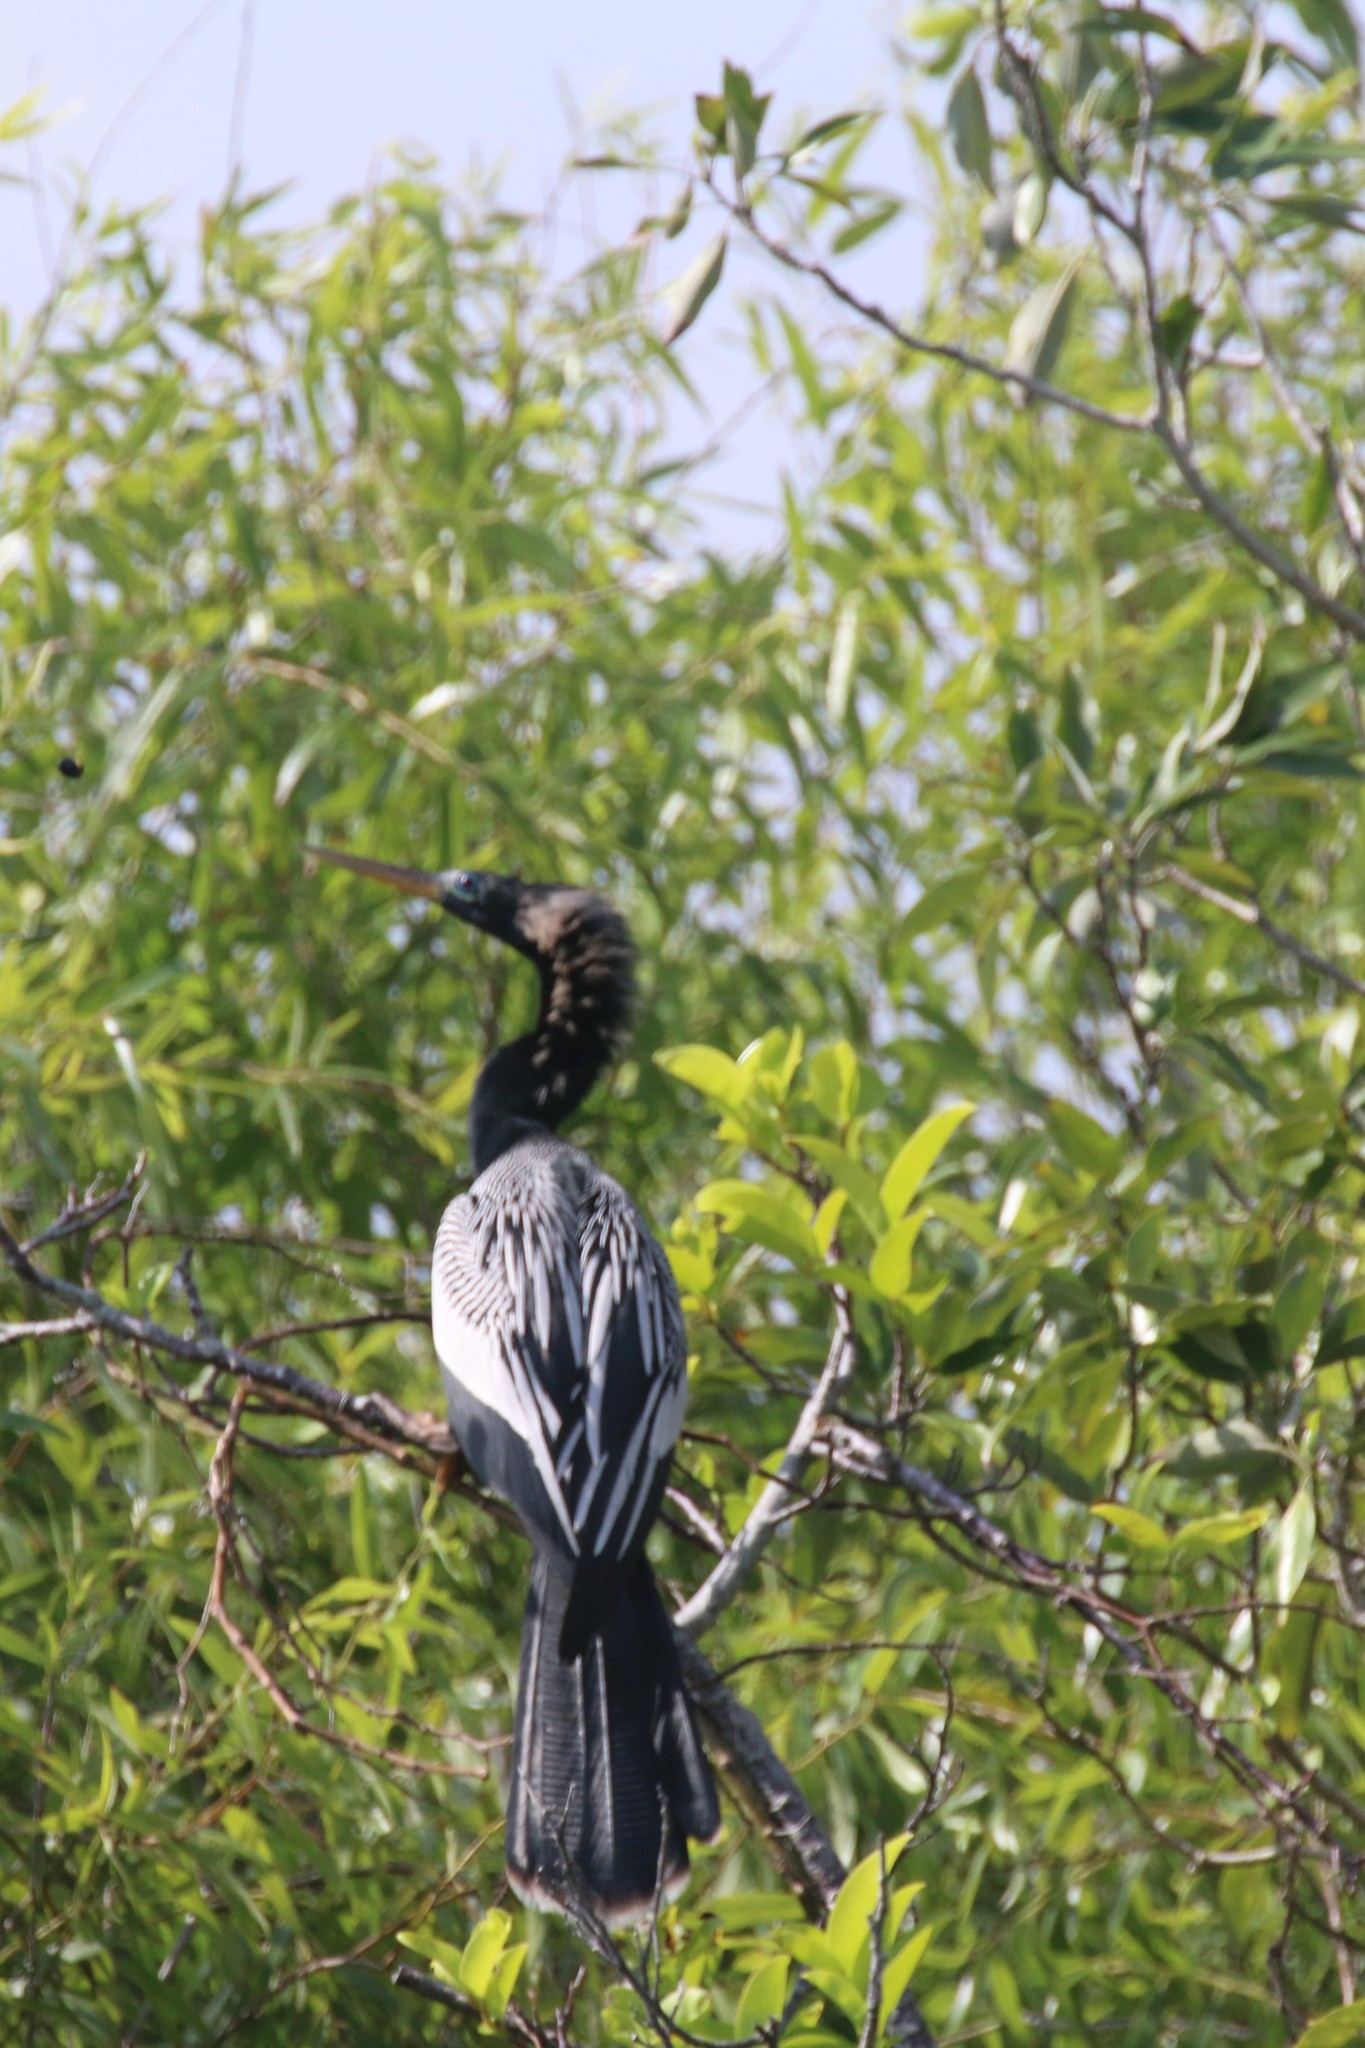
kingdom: Animalia
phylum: Chordata
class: Aves
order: Suliformes
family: Anhingidae
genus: Anhinga
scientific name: Anhinga anhinga
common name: Anhinga
